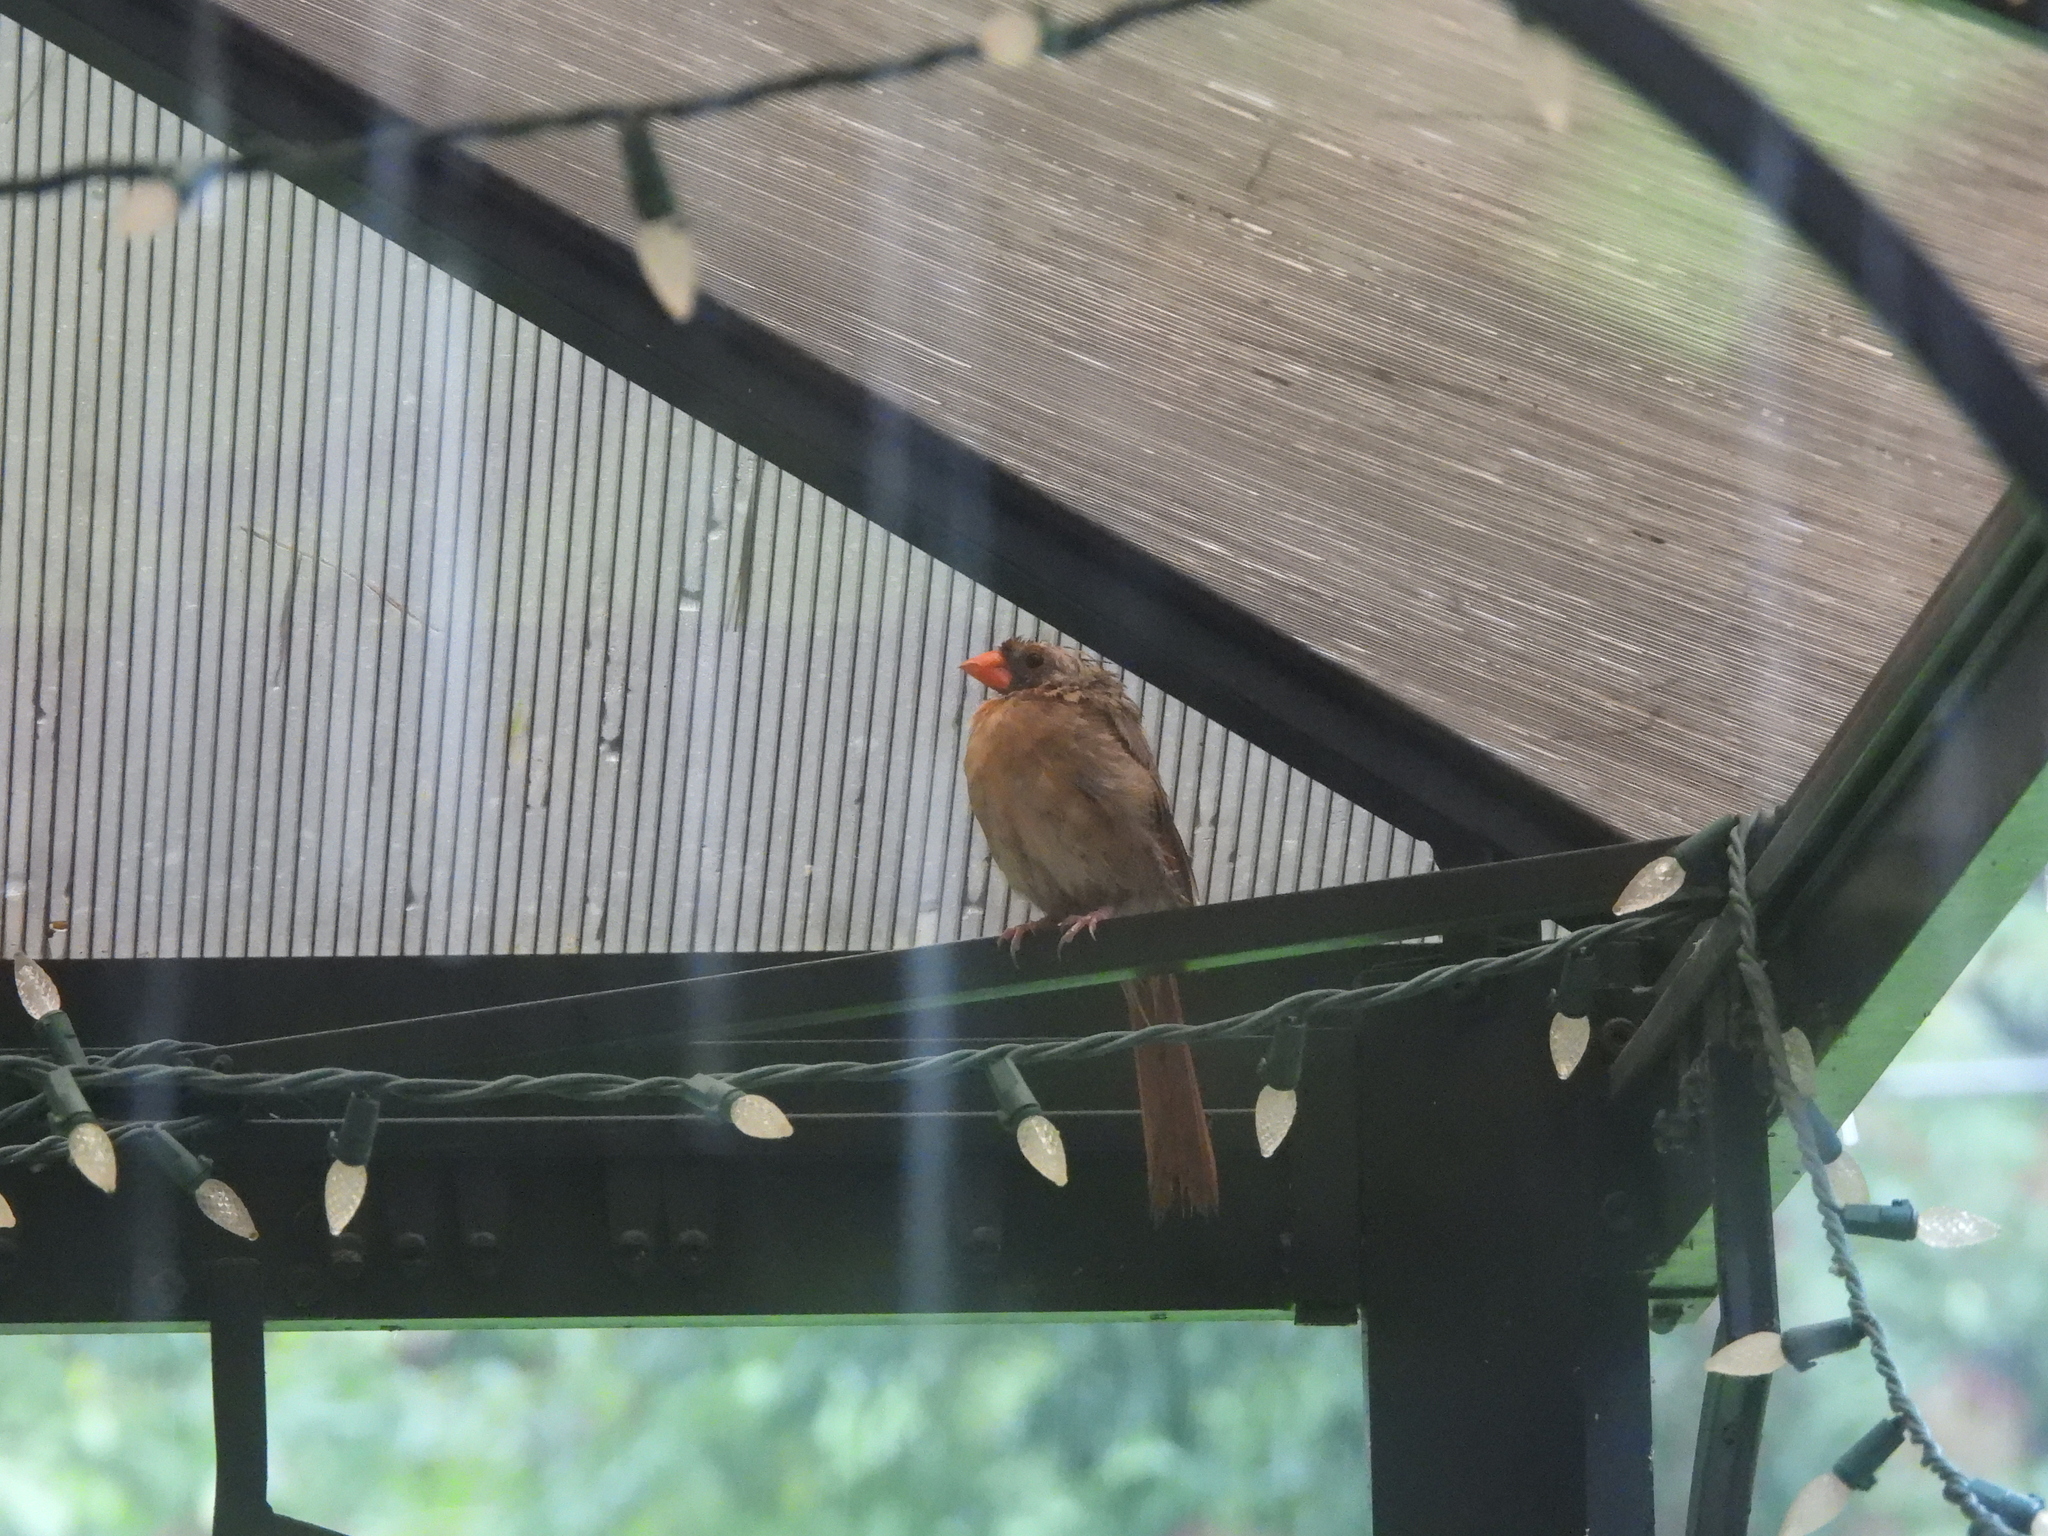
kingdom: Animalia
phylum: Chordata
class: Aves
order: Passeriformes
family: Cardinalidae
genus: Cardinalis
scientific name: Cardinalis cardinalis
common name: Northern cardinal
